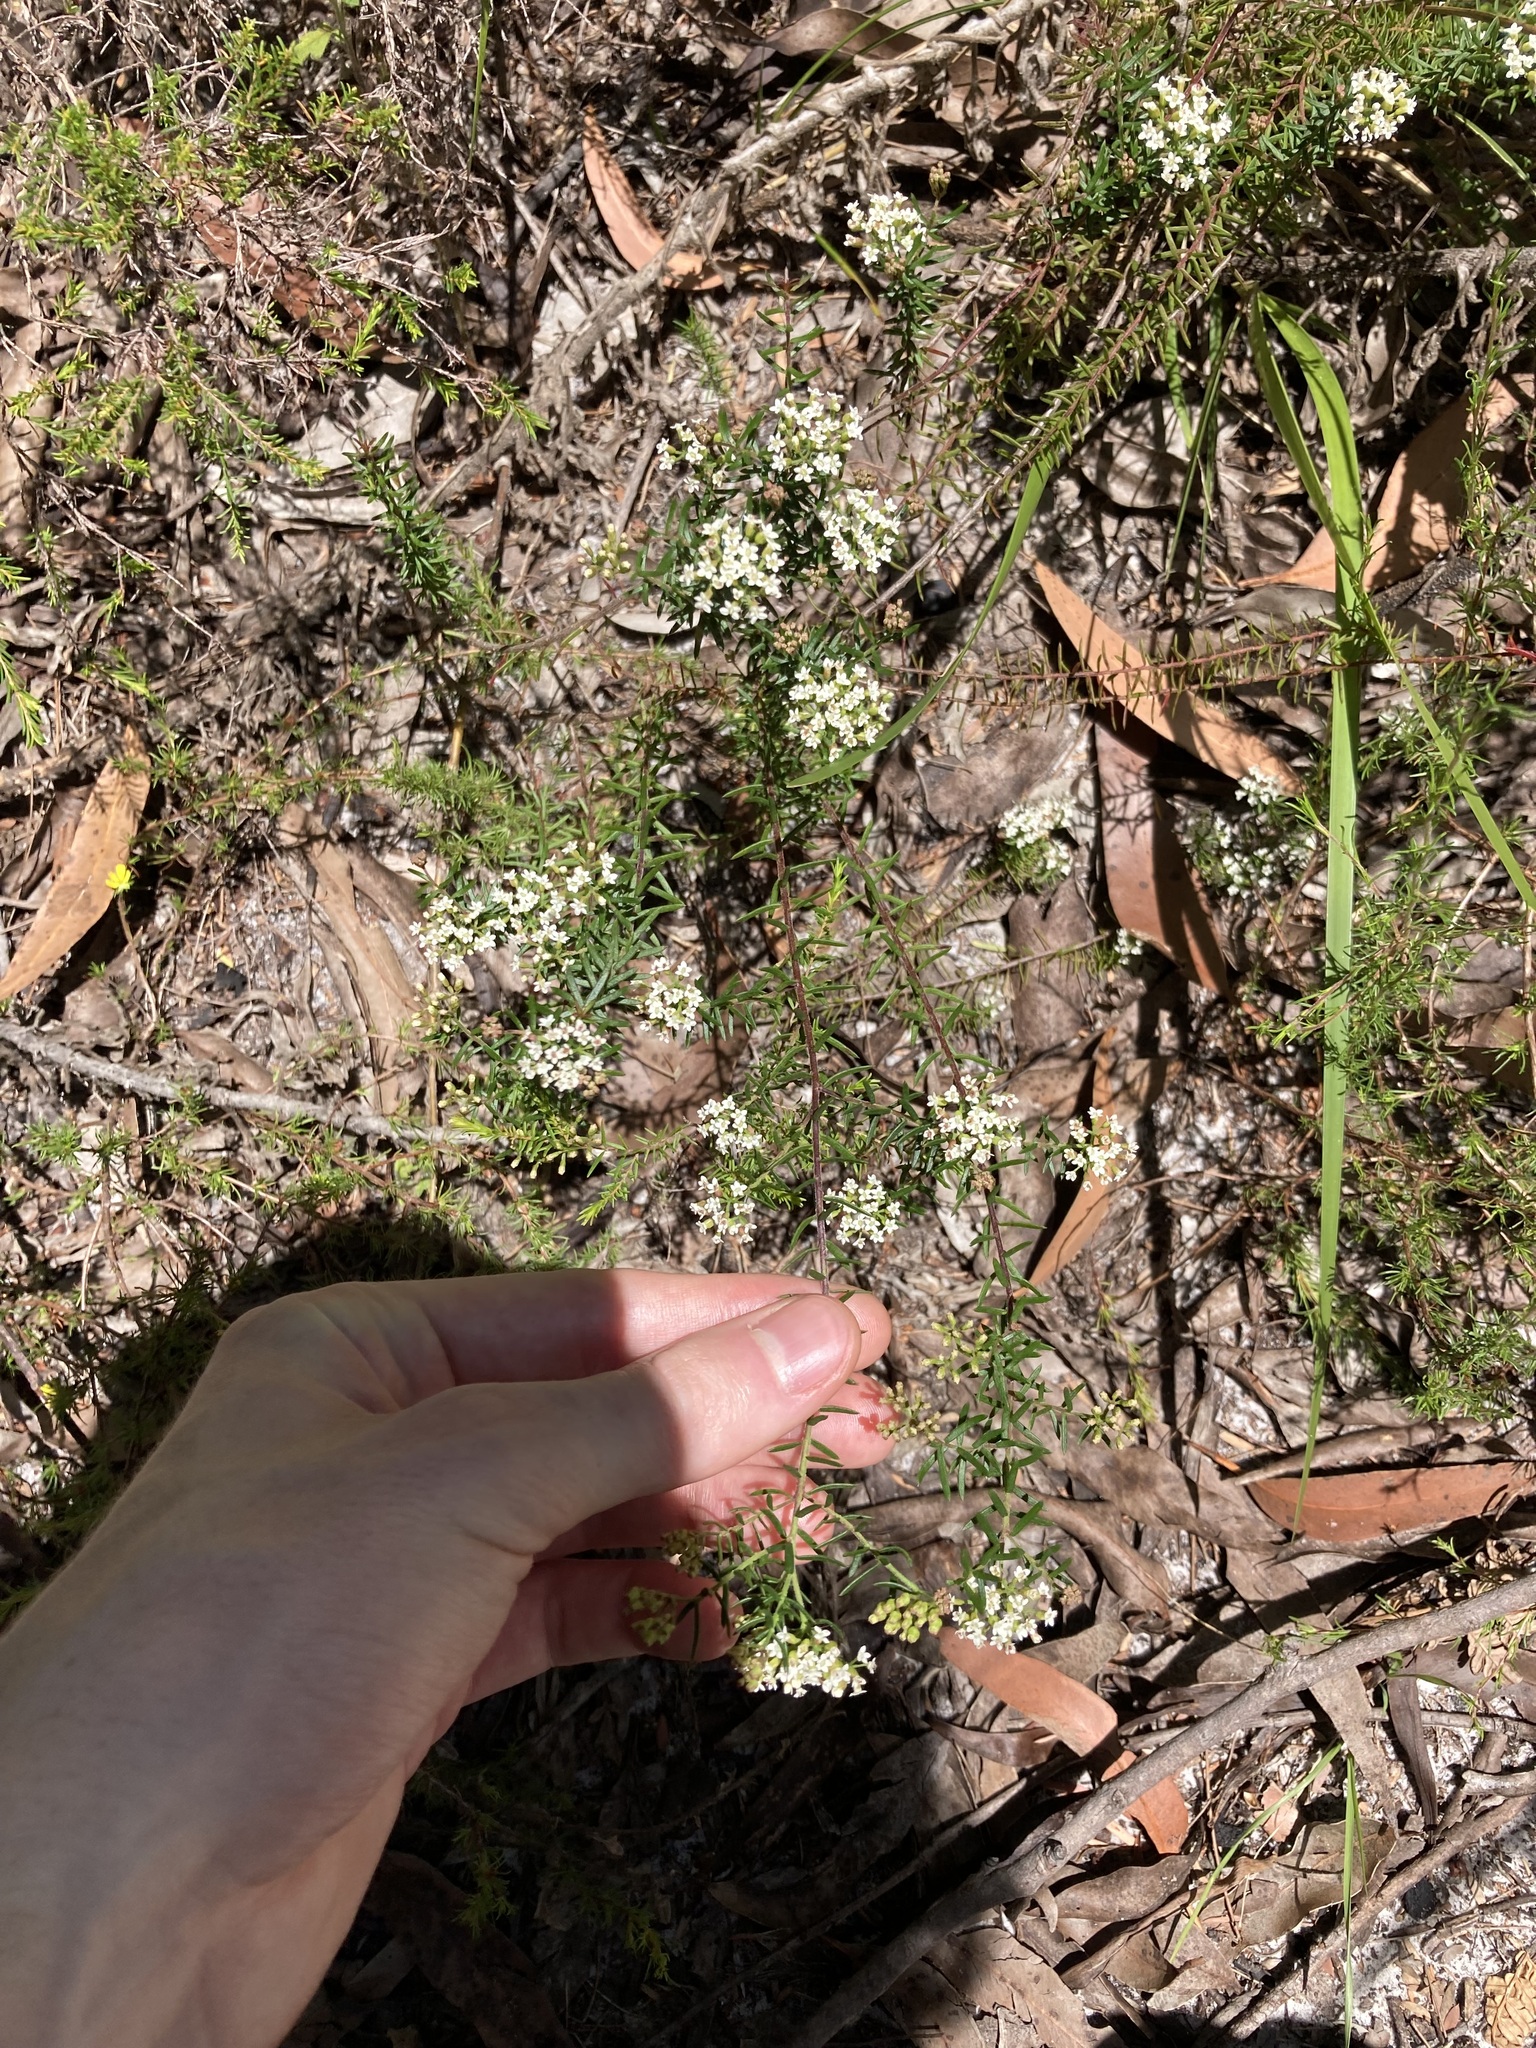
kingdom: Plantae
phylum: Tracheophyta
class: Magnoliopsida
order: Apiales
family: Apiaceae
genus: Platysace
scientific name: Platysace ericoides
